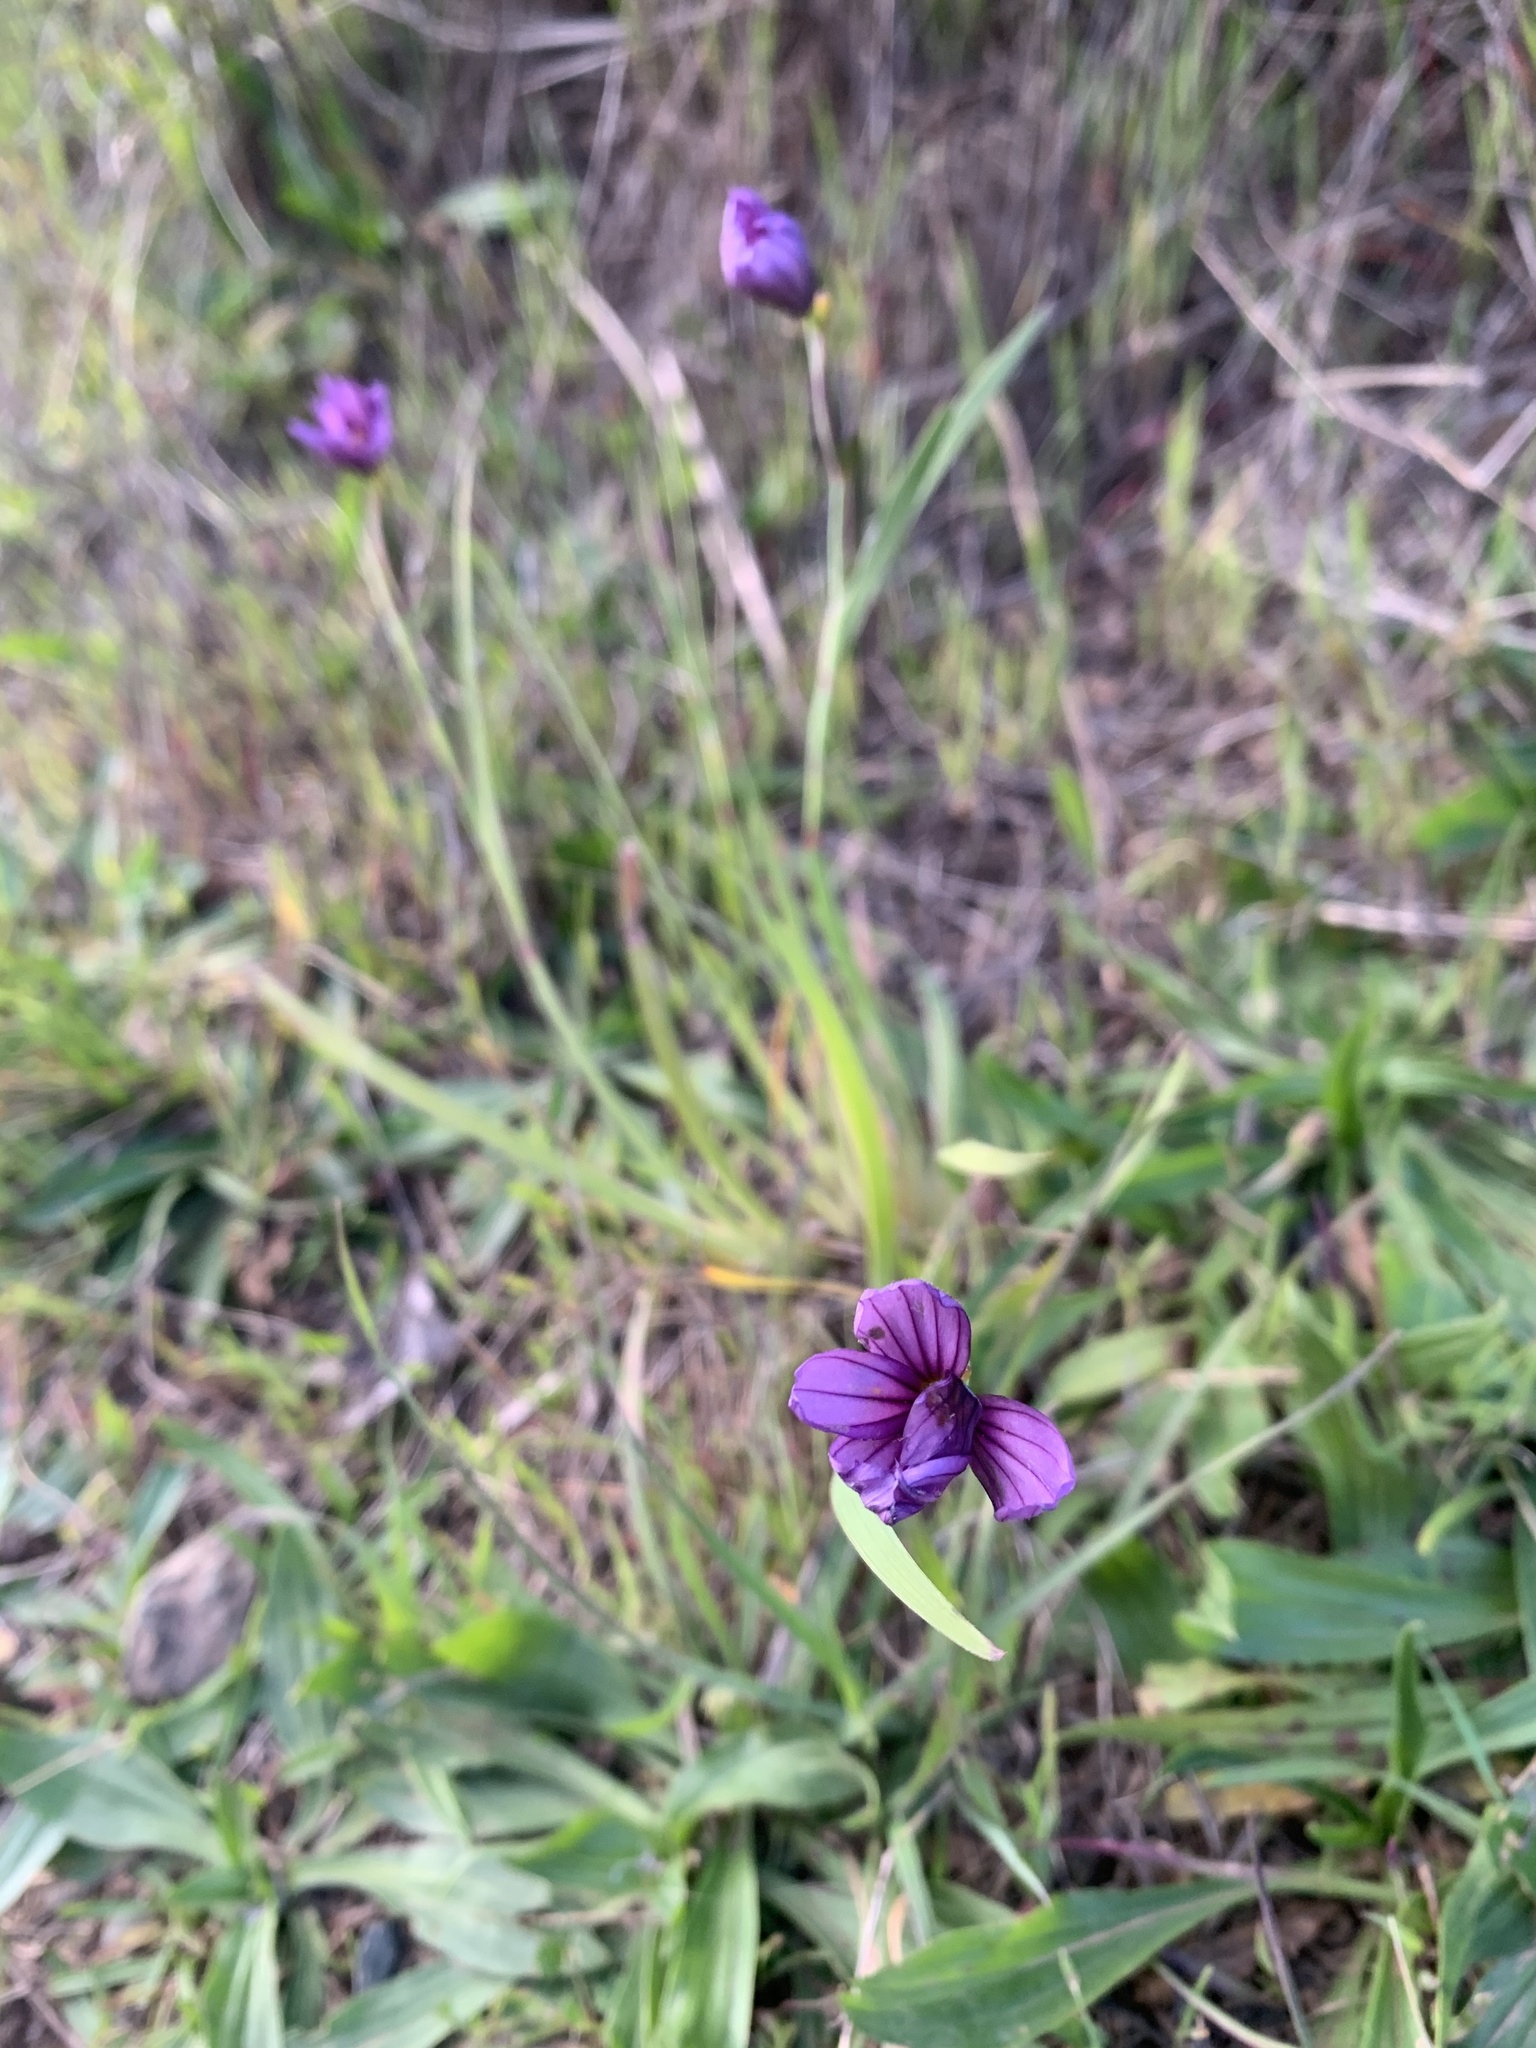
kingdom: Plantae
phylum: Tracheophyta
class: Liliopsida
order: Asparagales
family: Iridaceae
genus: Sisyrinchium
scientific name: Sisyrinchium bellum
